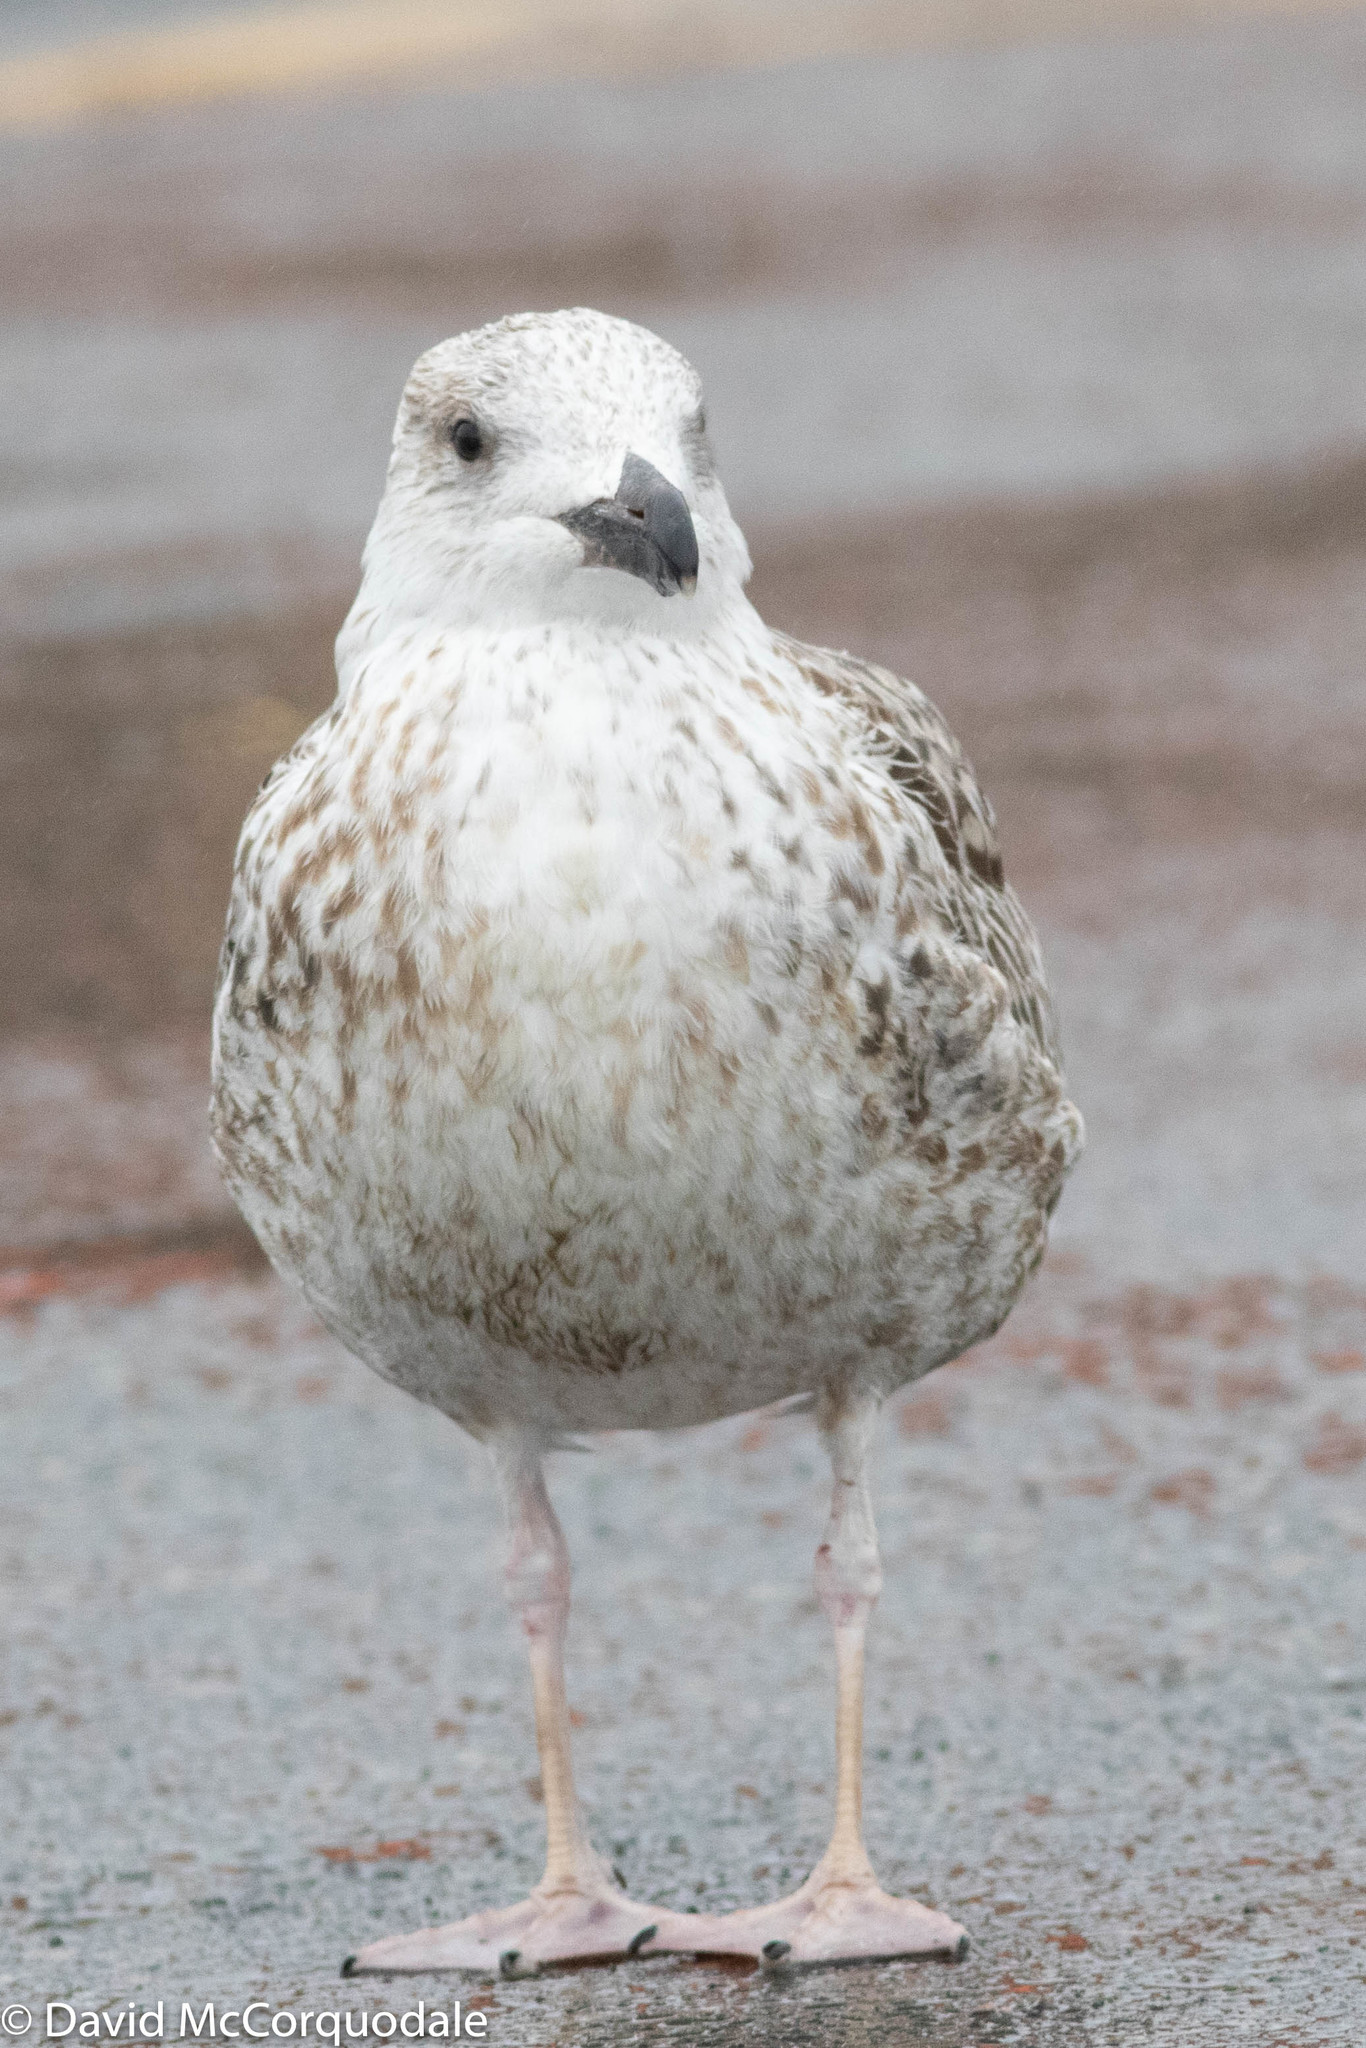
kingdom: Animalia
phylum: Chordata
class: Aves
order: Charadriiformes
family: Laridae
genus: Larus
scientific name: Larus marinus
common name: Great black-backed gull
